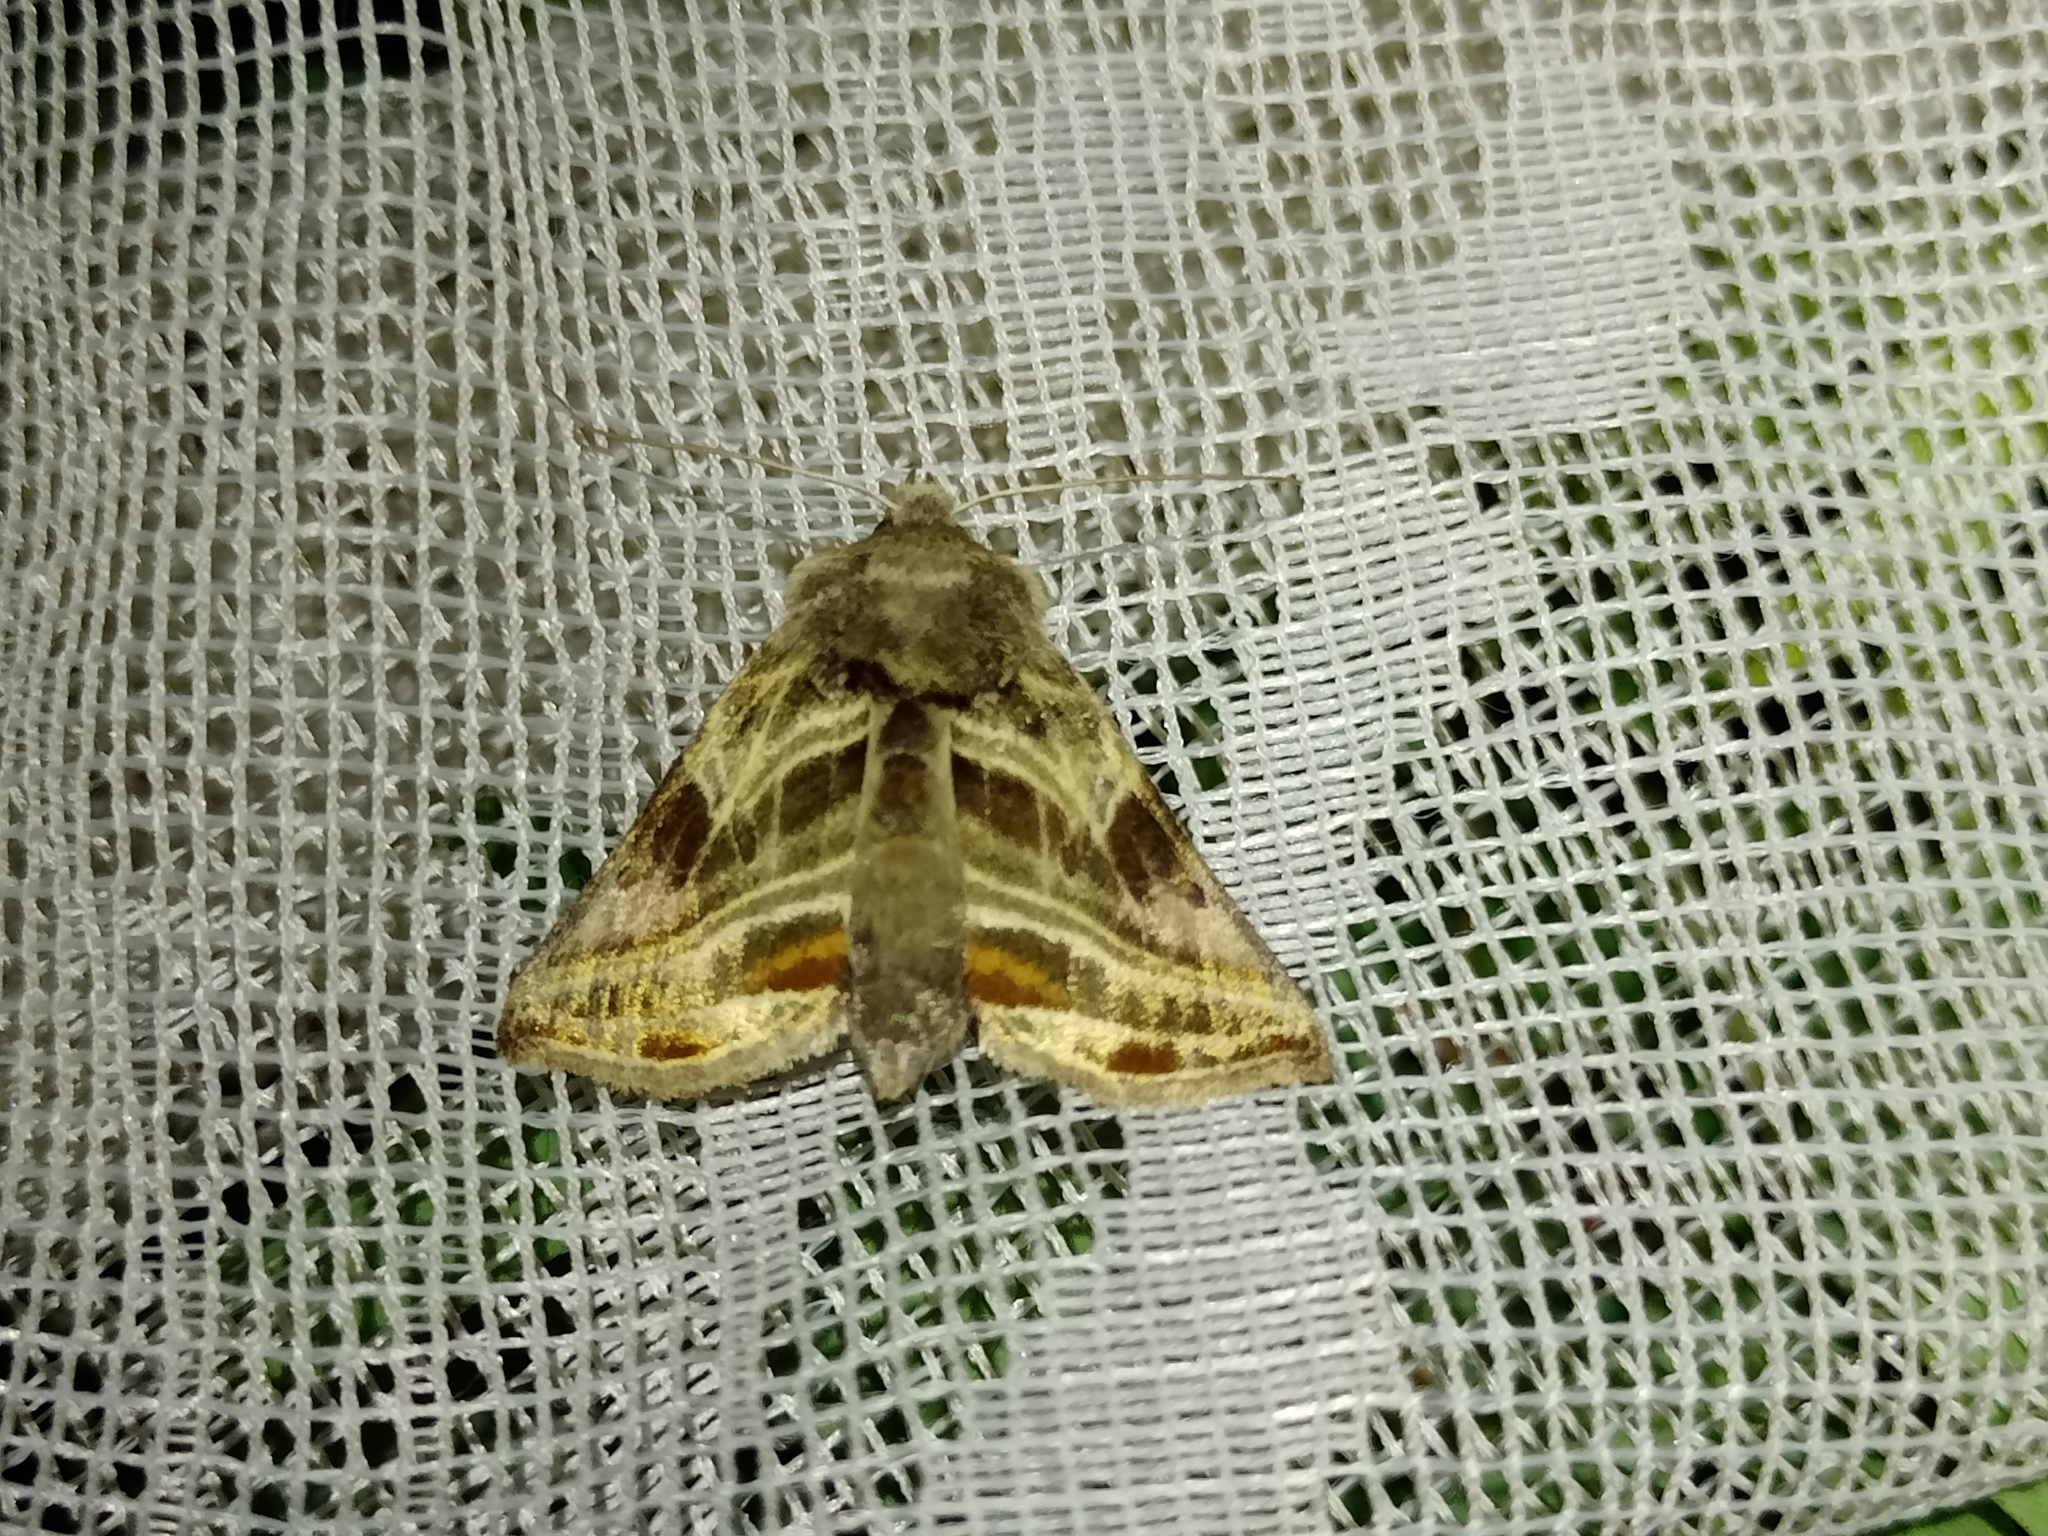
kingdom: Animalia
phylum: Arthropoda
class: Insecta
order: Lepidoptera
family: Noctuidae
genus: Euchalcia
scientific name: Euchalcia modestoides
